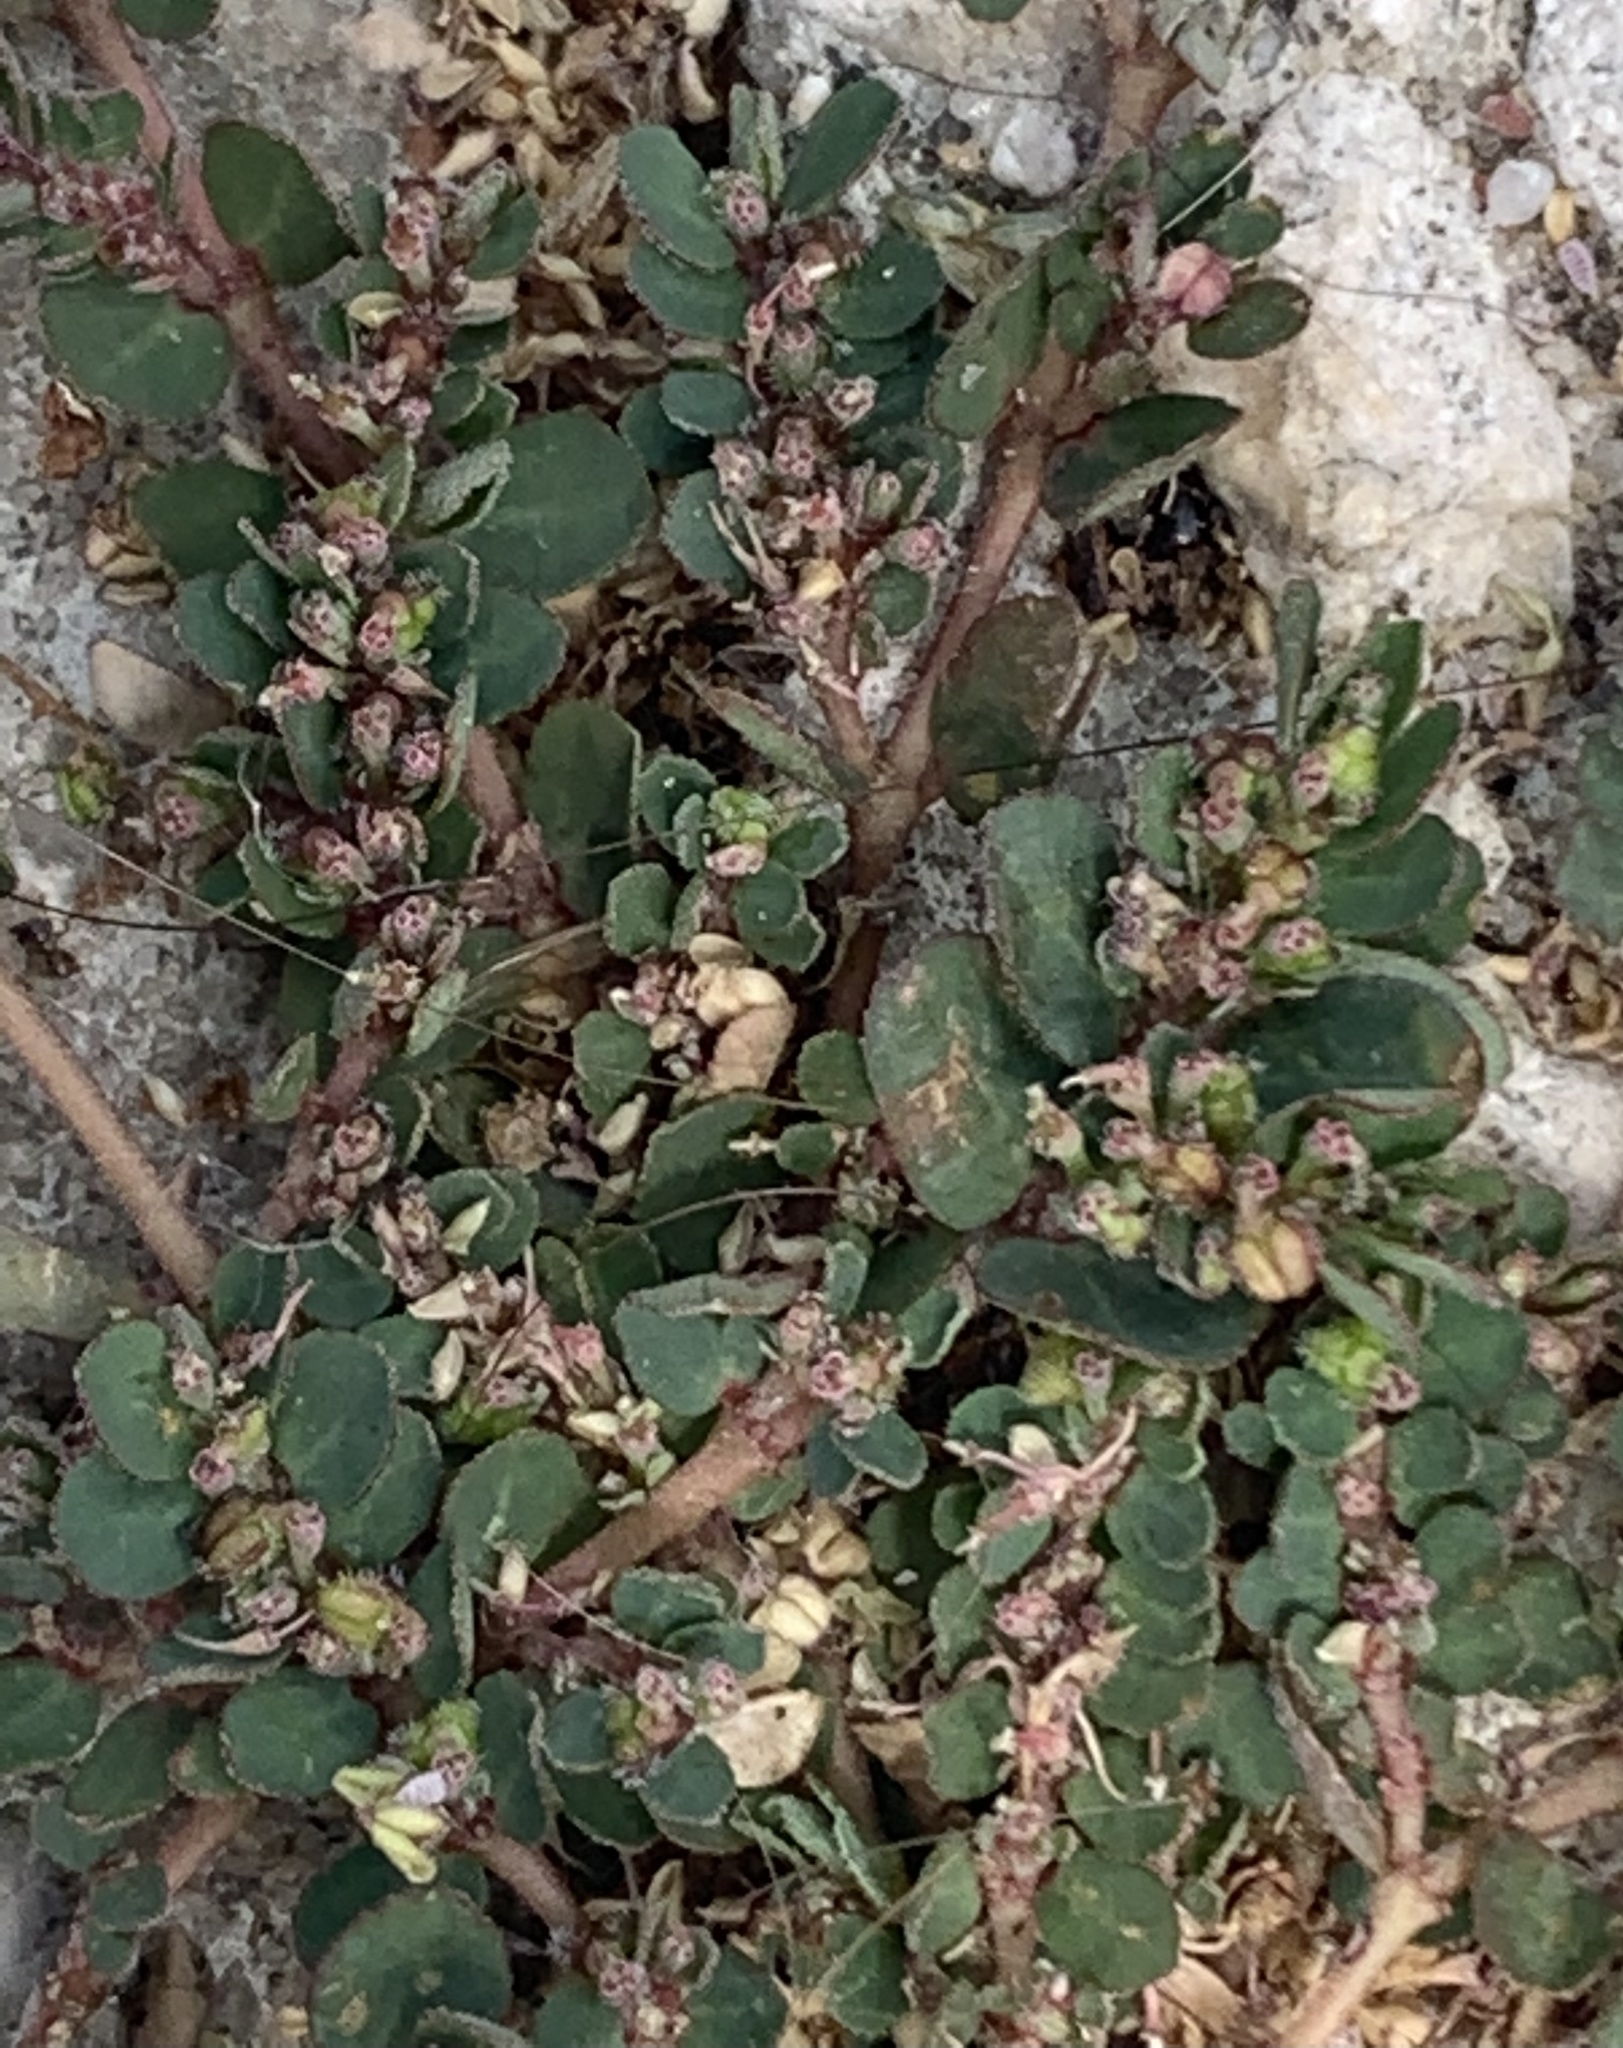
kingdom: Plantae
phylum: Tracheophyta
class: Magnoliopsida
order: Malpighiales
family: Euphorbiaceae
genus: Euphorbia
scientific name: Euphorbia prostrata
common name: Prostrate sandmat
